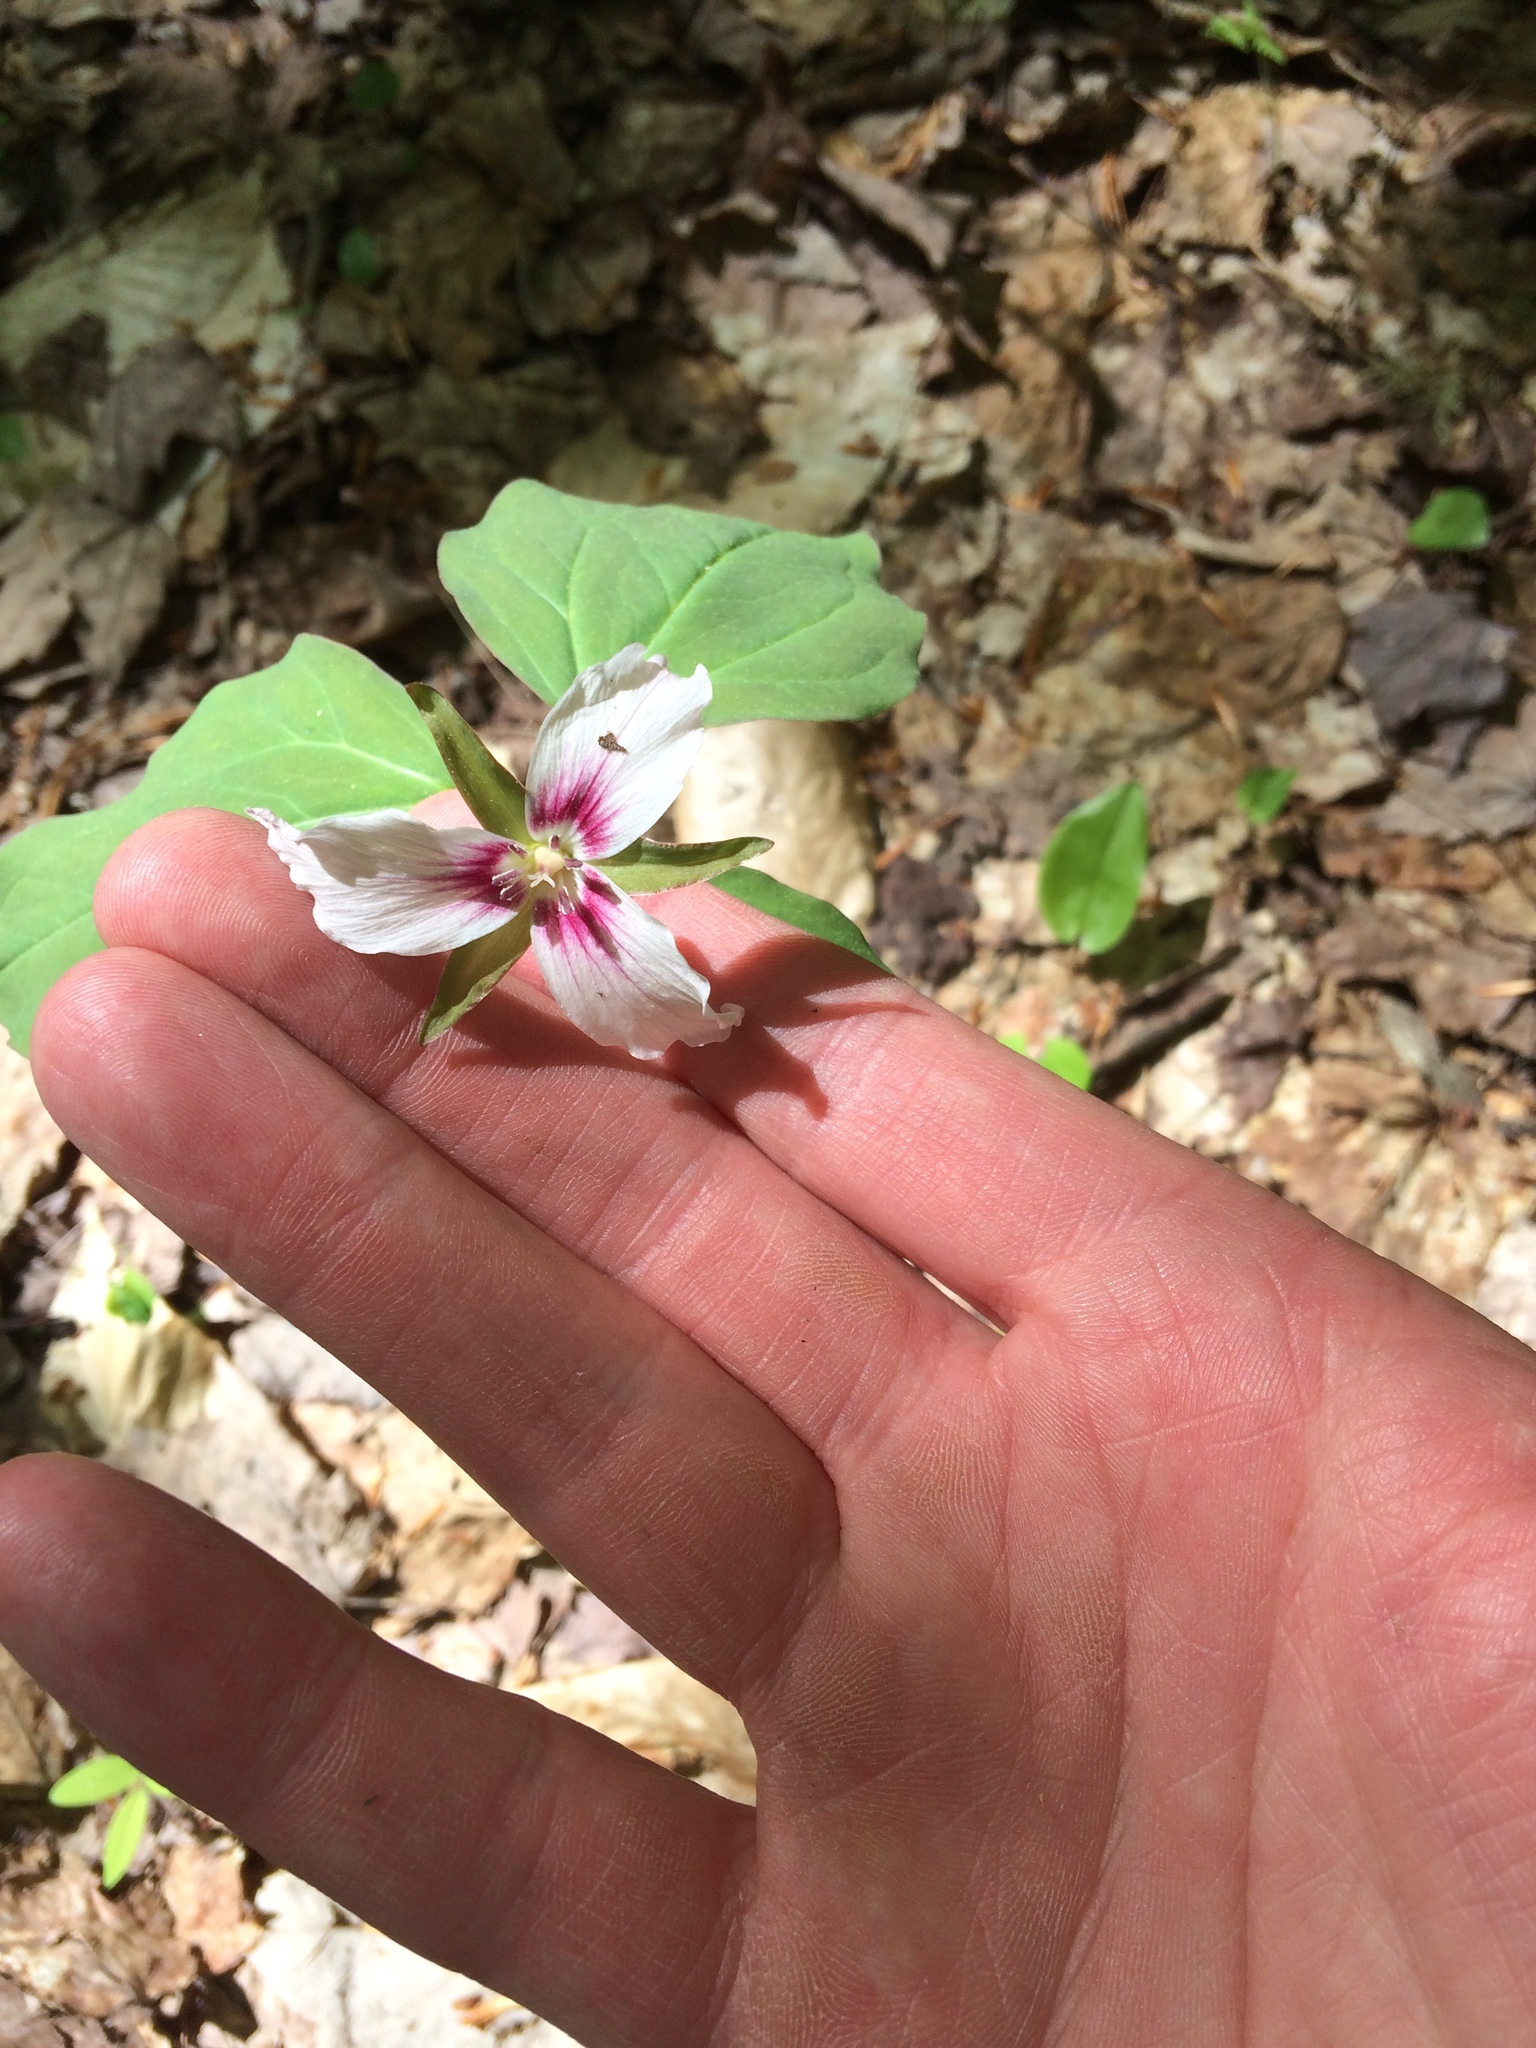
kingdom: Plantae
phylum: Tracheophyta
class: Liliopsida
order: Liliales
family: Melanthiaceae
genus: Trillium
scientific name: Trillium undulatum
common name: Paint trillium
